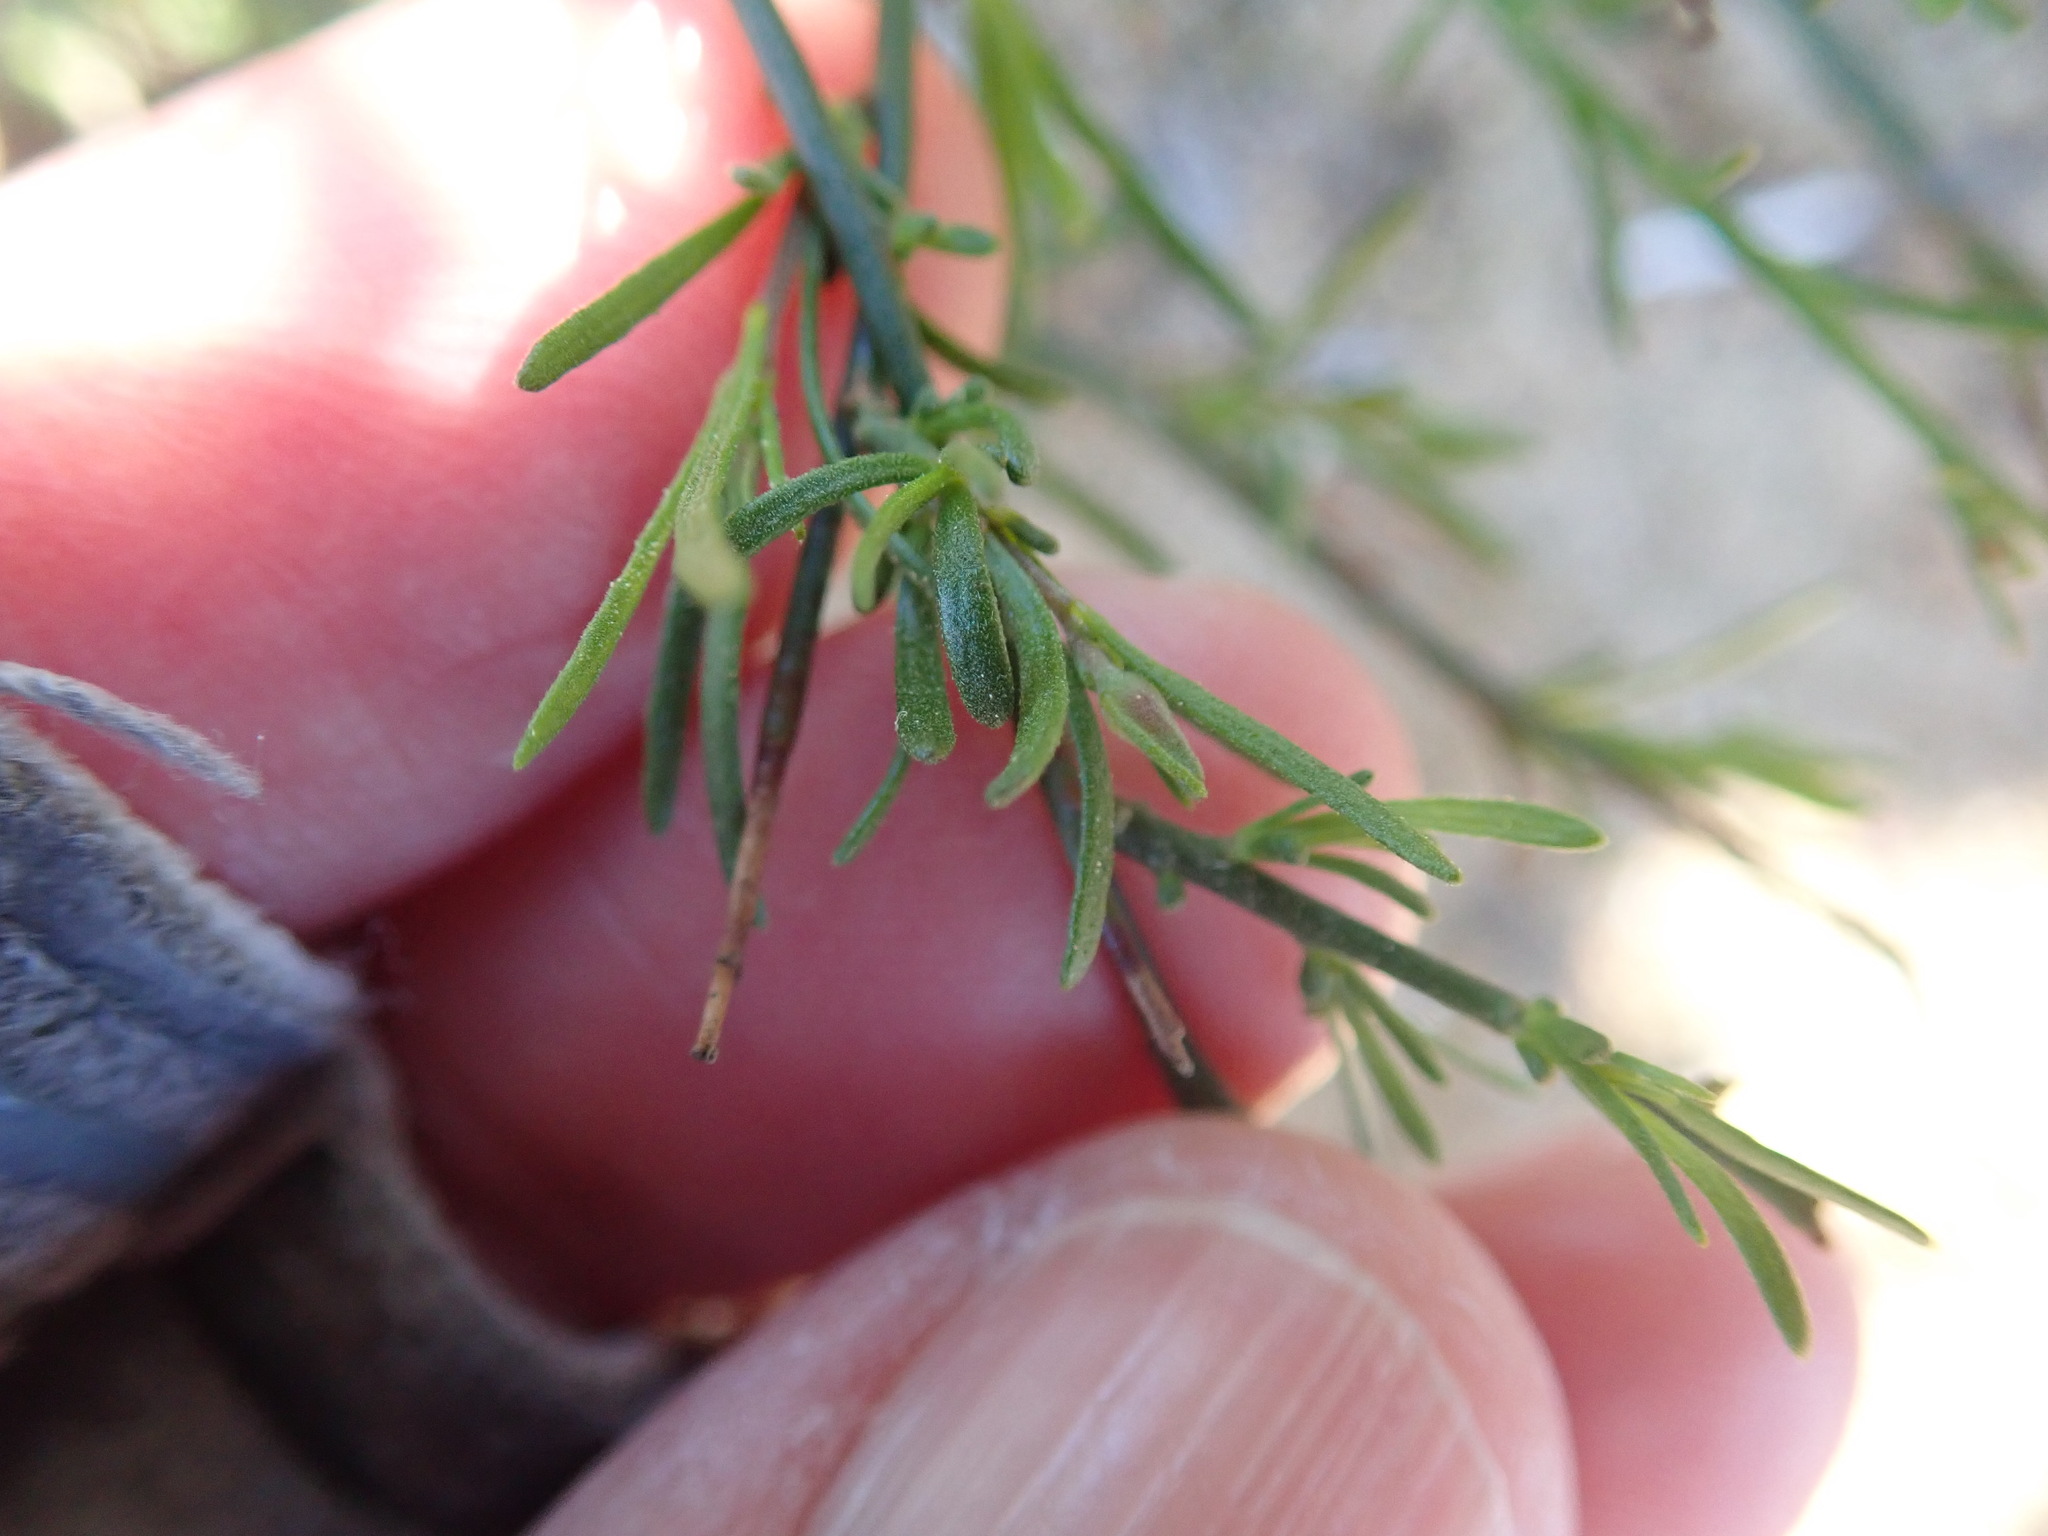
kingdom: Plantae
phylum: Tracheophyta
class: Magnoliopsida
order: Malvales
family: Cistaceae
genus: Crocanthemum
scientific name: Crocanthemum
